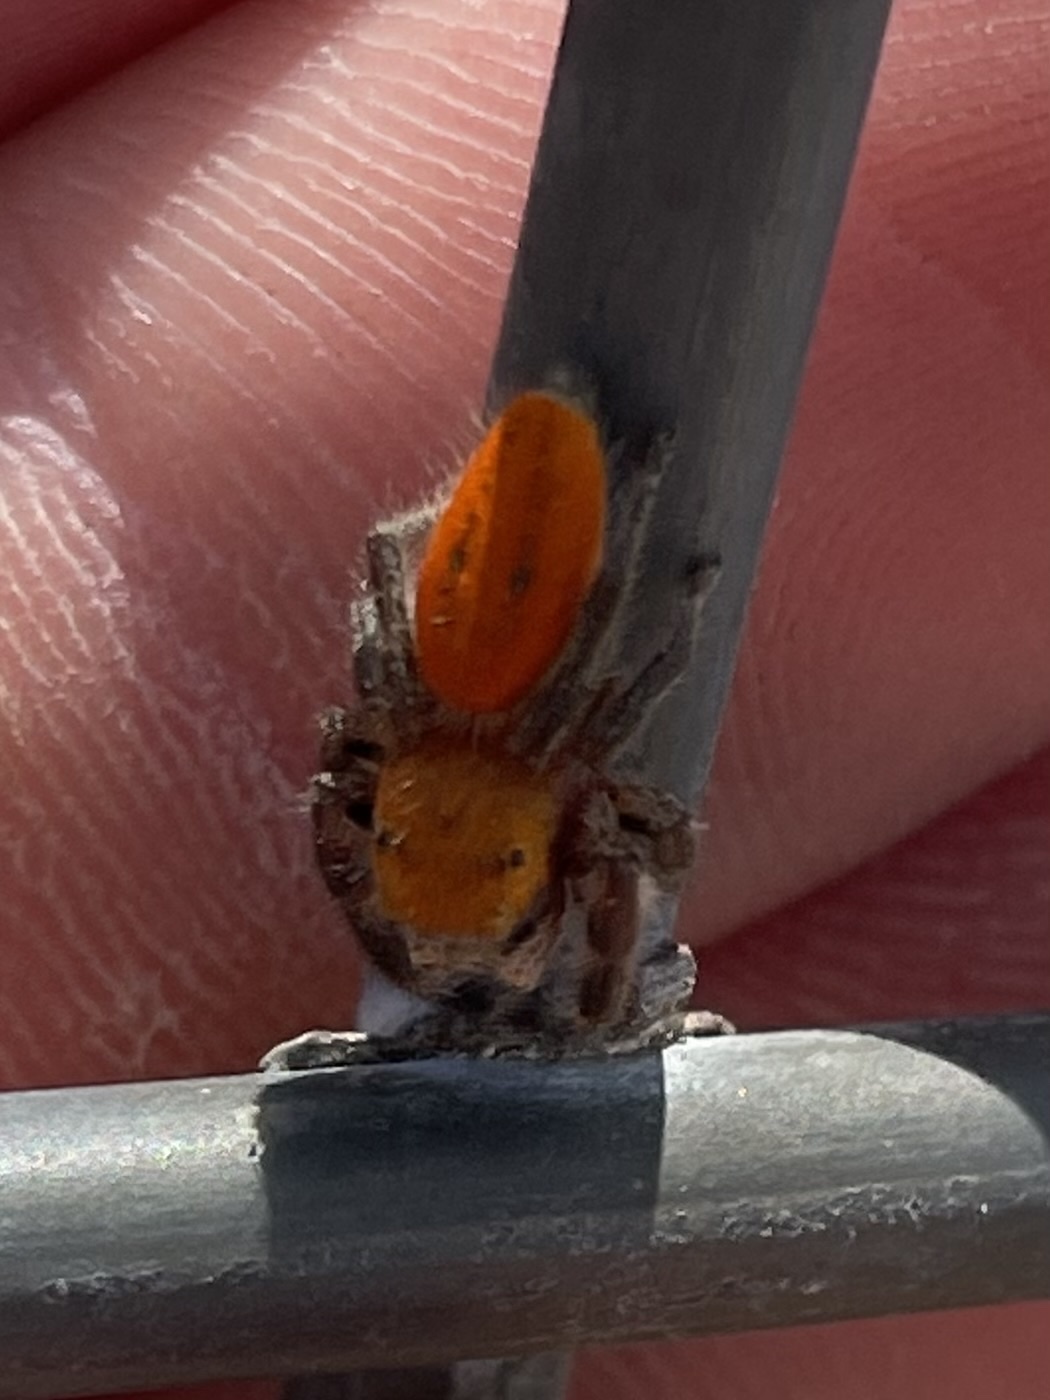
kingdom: Animalia
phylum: Arthropoda
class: Arachnida
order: Araneae
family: Salticidae
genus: Phidippus
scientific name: Phidippus pius
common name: Jumping spiders
